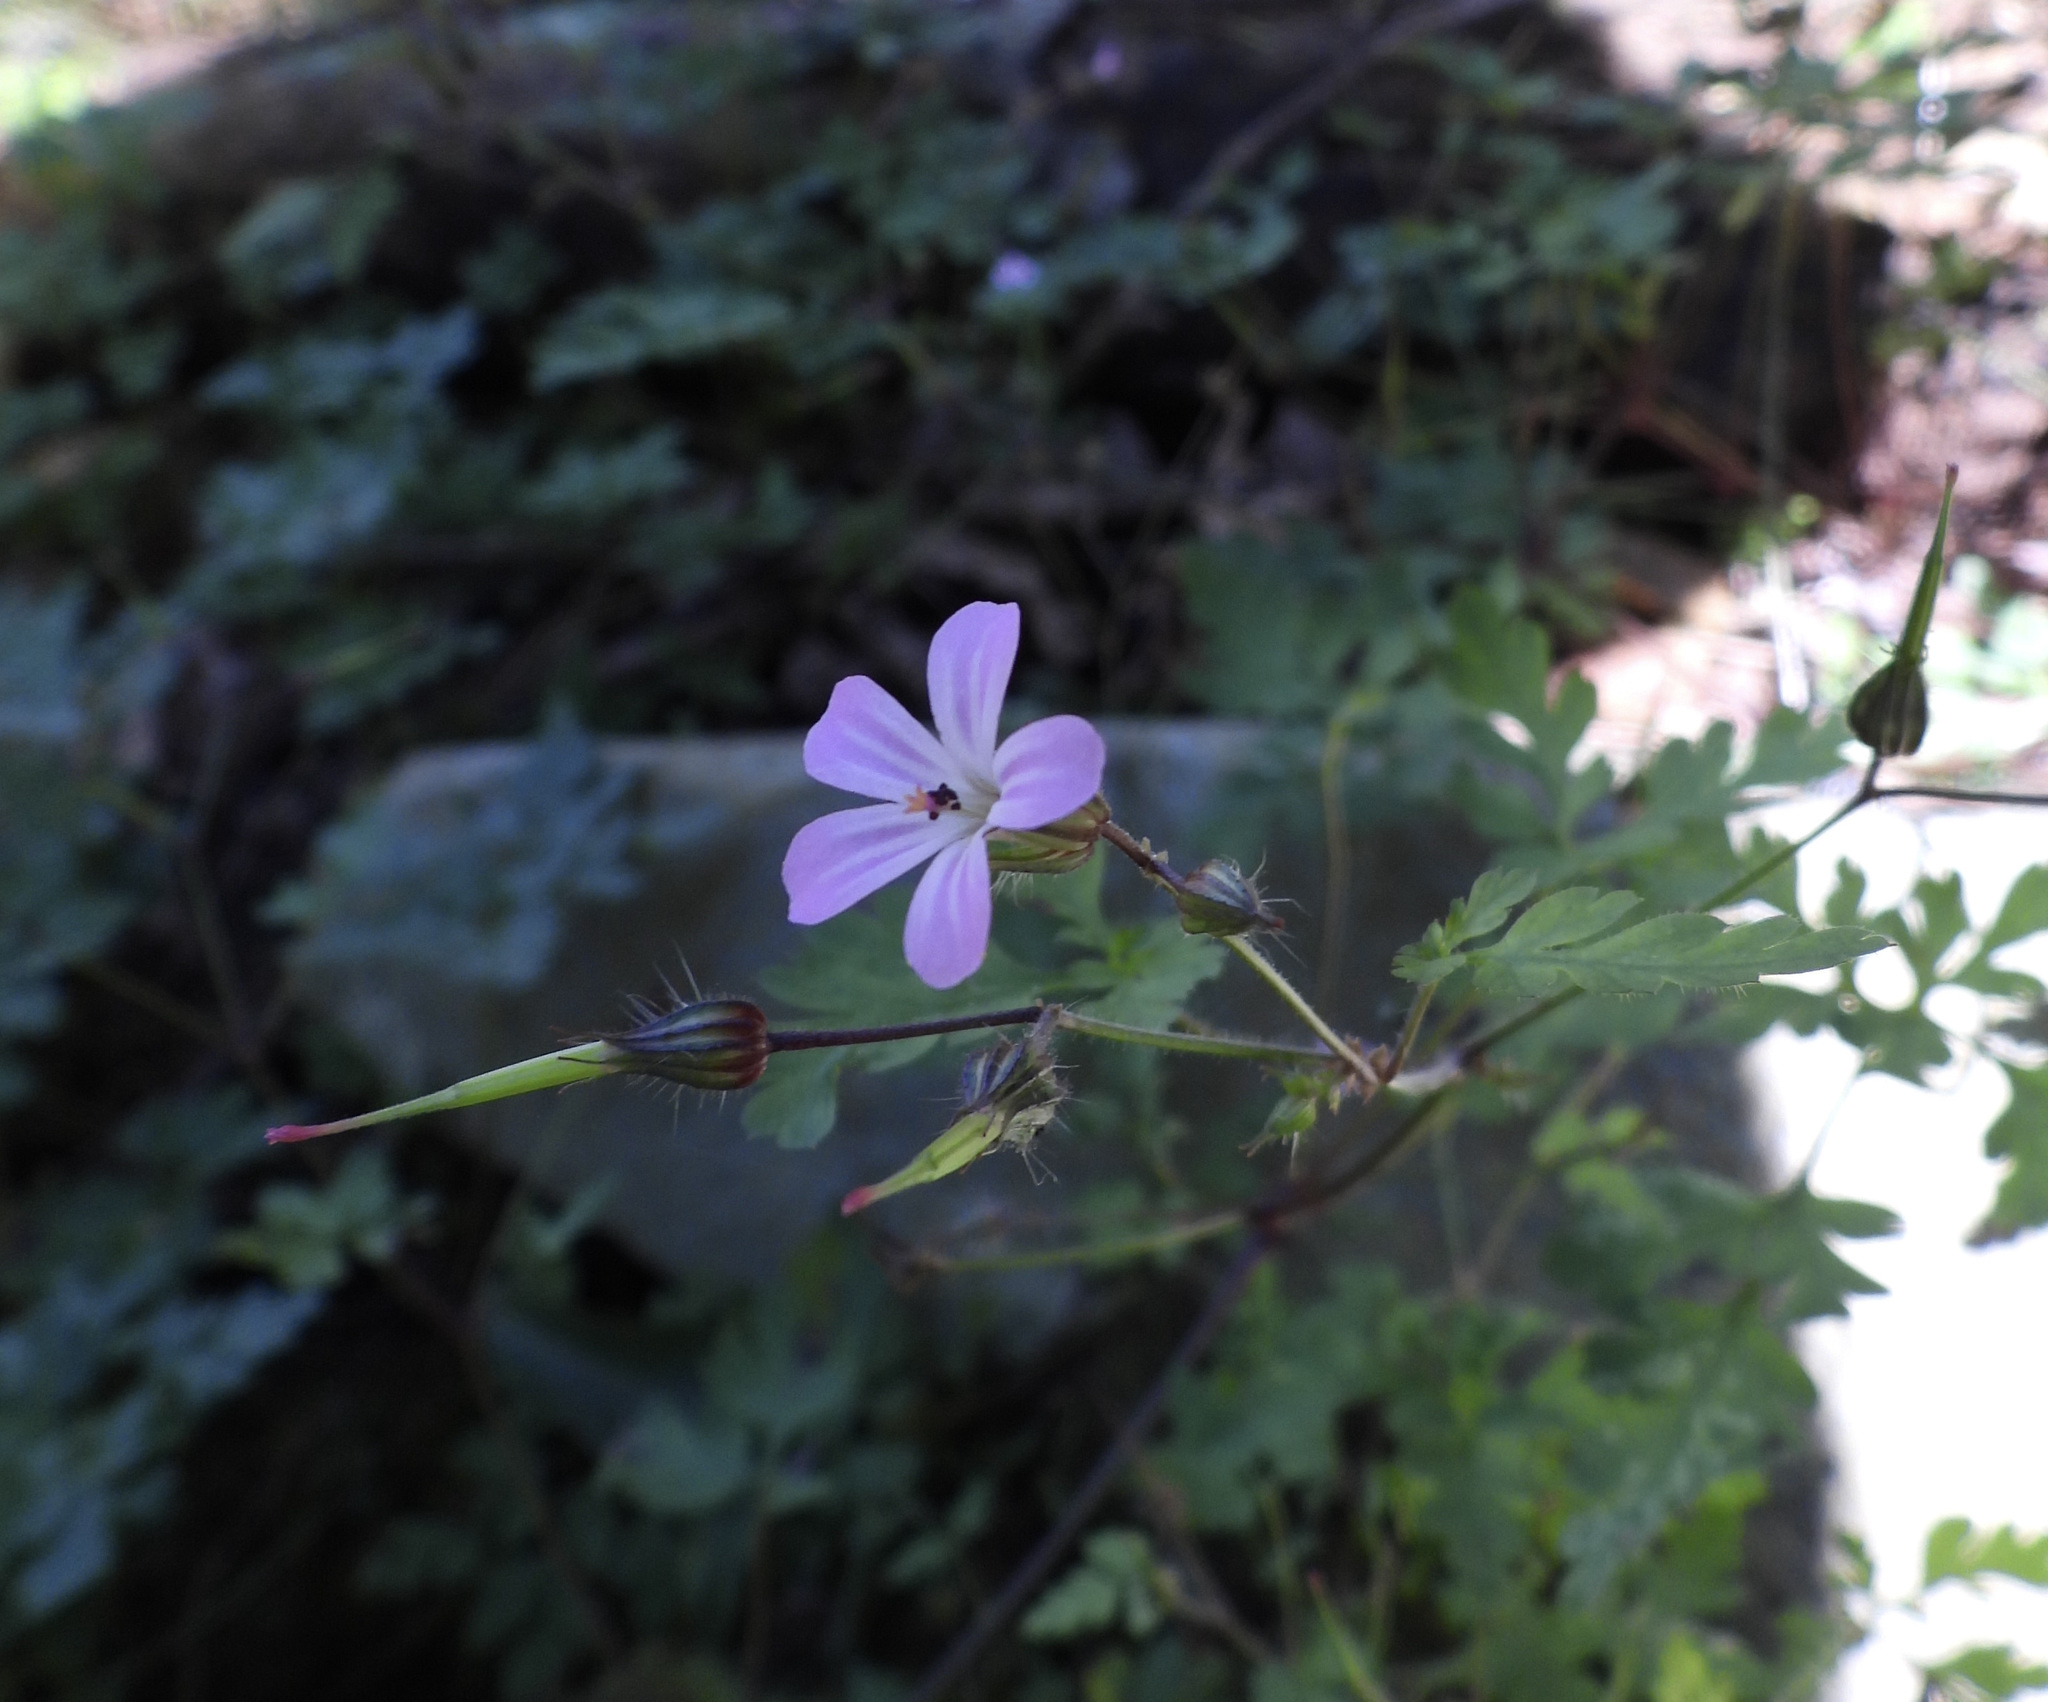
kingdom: Plantae
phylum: Tracheophyta
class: Magnoliopsida
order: Geraniales
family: Geraniaceae
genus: Geranium
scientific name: Geranium robertianum
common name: Herb-robert
